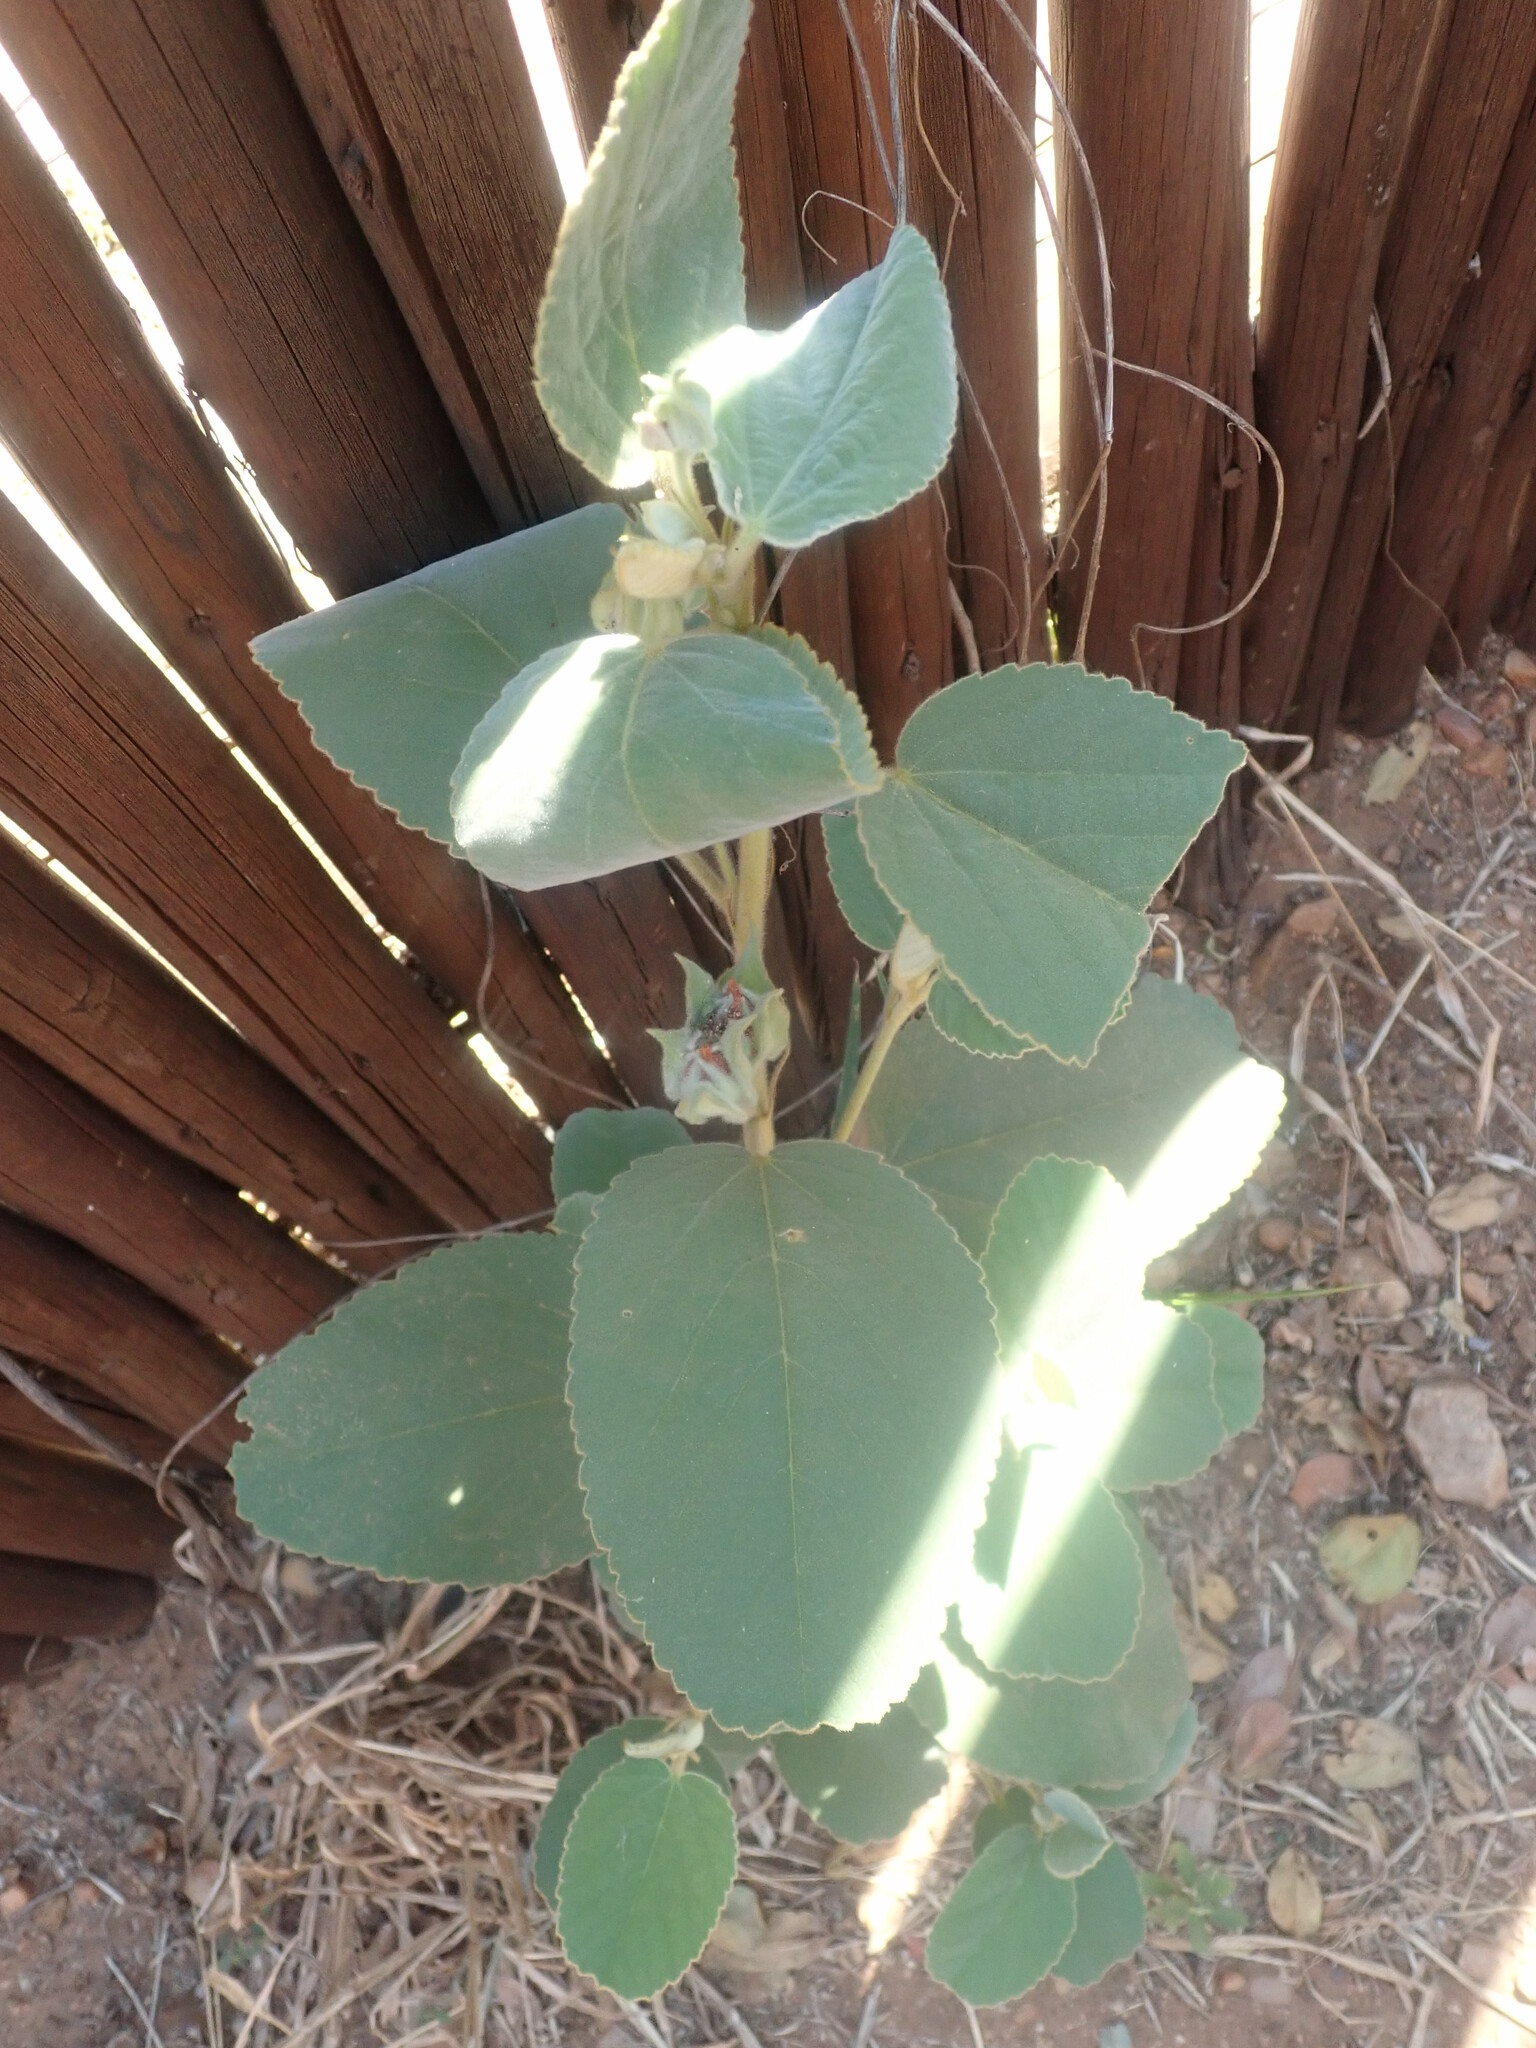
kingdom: Plantae
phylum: Tracheophyta
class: Magnoliopsida
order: Malvales
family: Malvaceae
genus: Melhania
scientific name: Melhania forbesii
